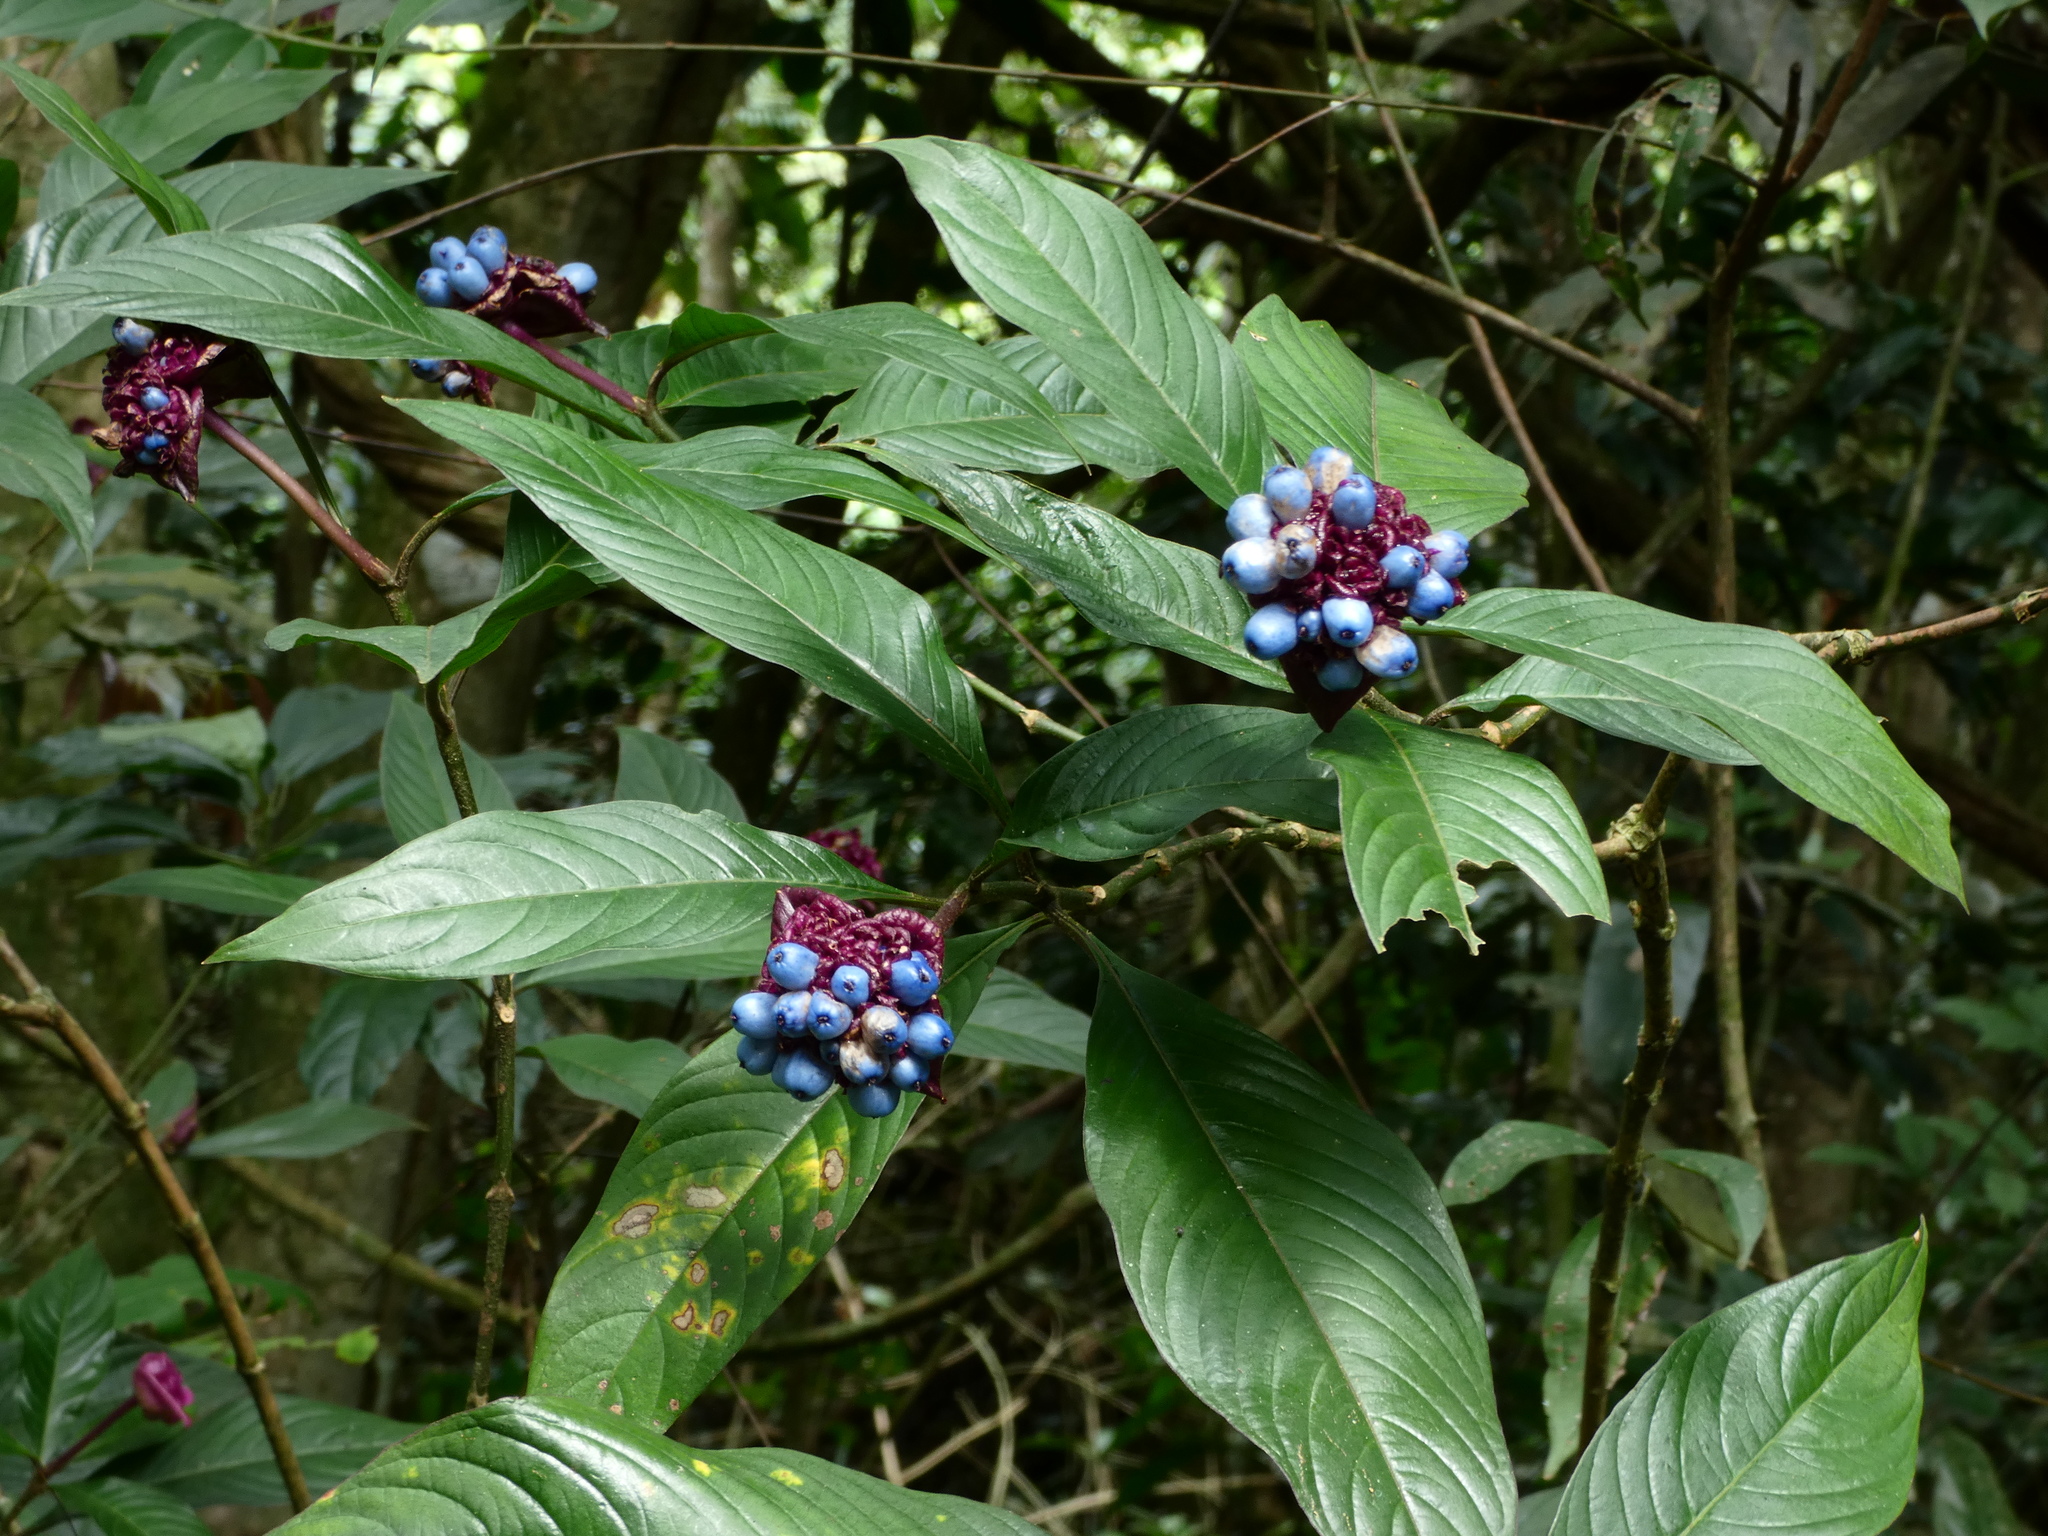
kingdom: Plantae
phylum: Tracheophyta
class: Magnoliopsida
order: Gentianales
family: Rubiaceae
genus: Palicourea
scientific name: Palicourea colorata
